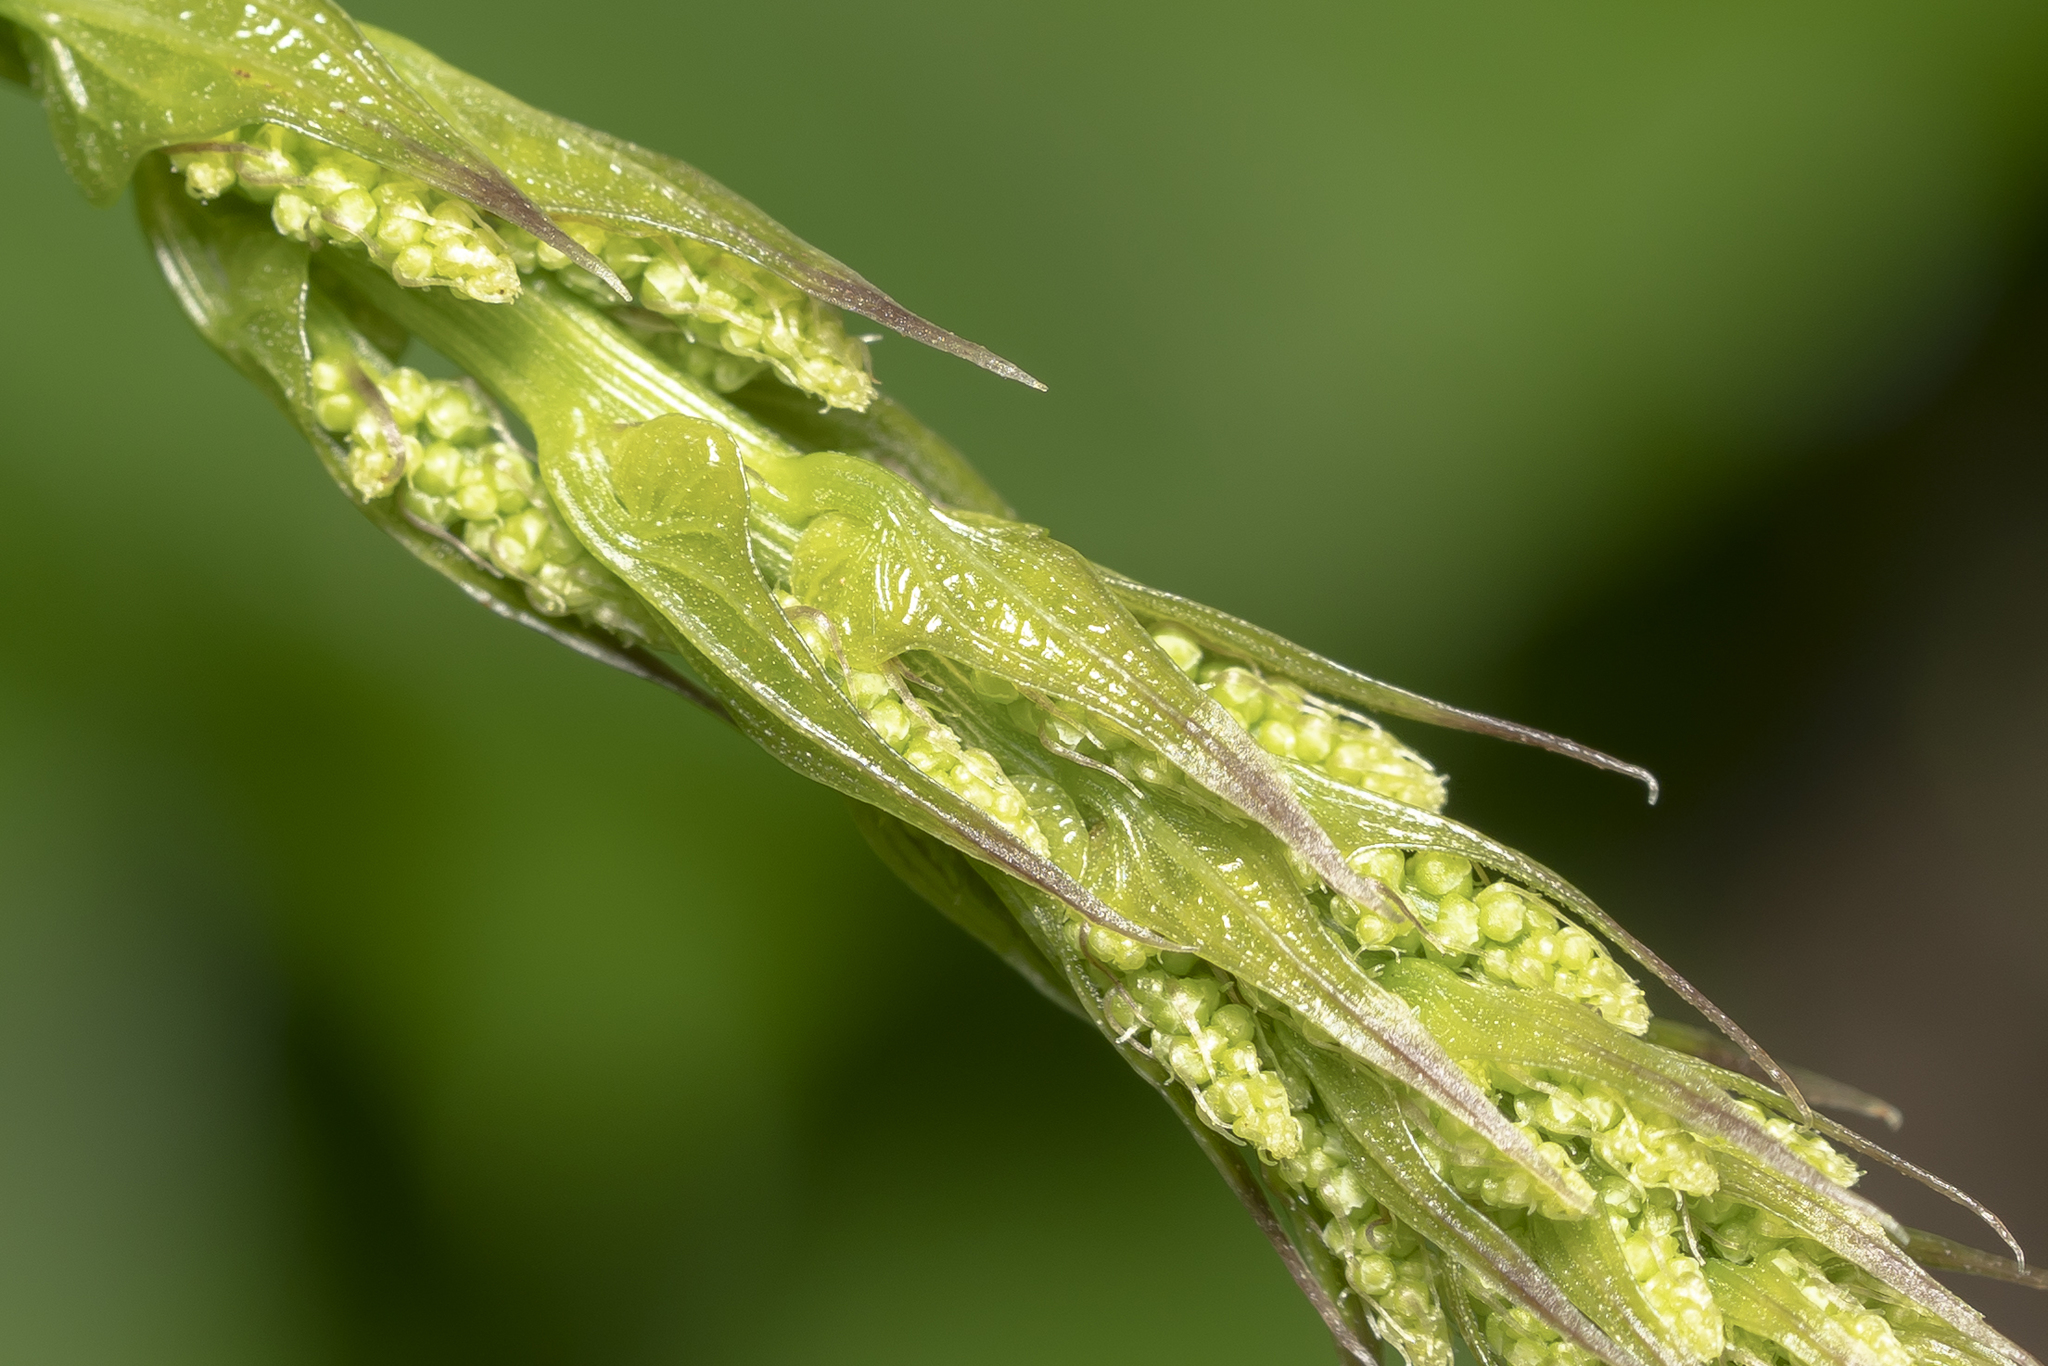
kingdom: Plantae
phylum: Tracheophyta
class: Liliopsida
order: Dioscoreales
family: Dioscoreaceae
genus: Dioscorea
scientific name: Dioscorea communis
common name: Black-bindweed
